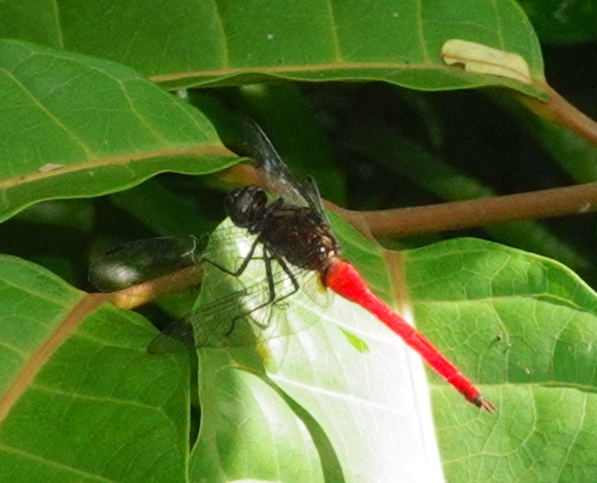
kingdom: Animalia
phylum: Arthropoda
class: Insecta
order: Odonata
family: Libellulidae
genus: Orthetrum
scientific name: Orthetrum villosovittatum
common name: Firery skimmer
